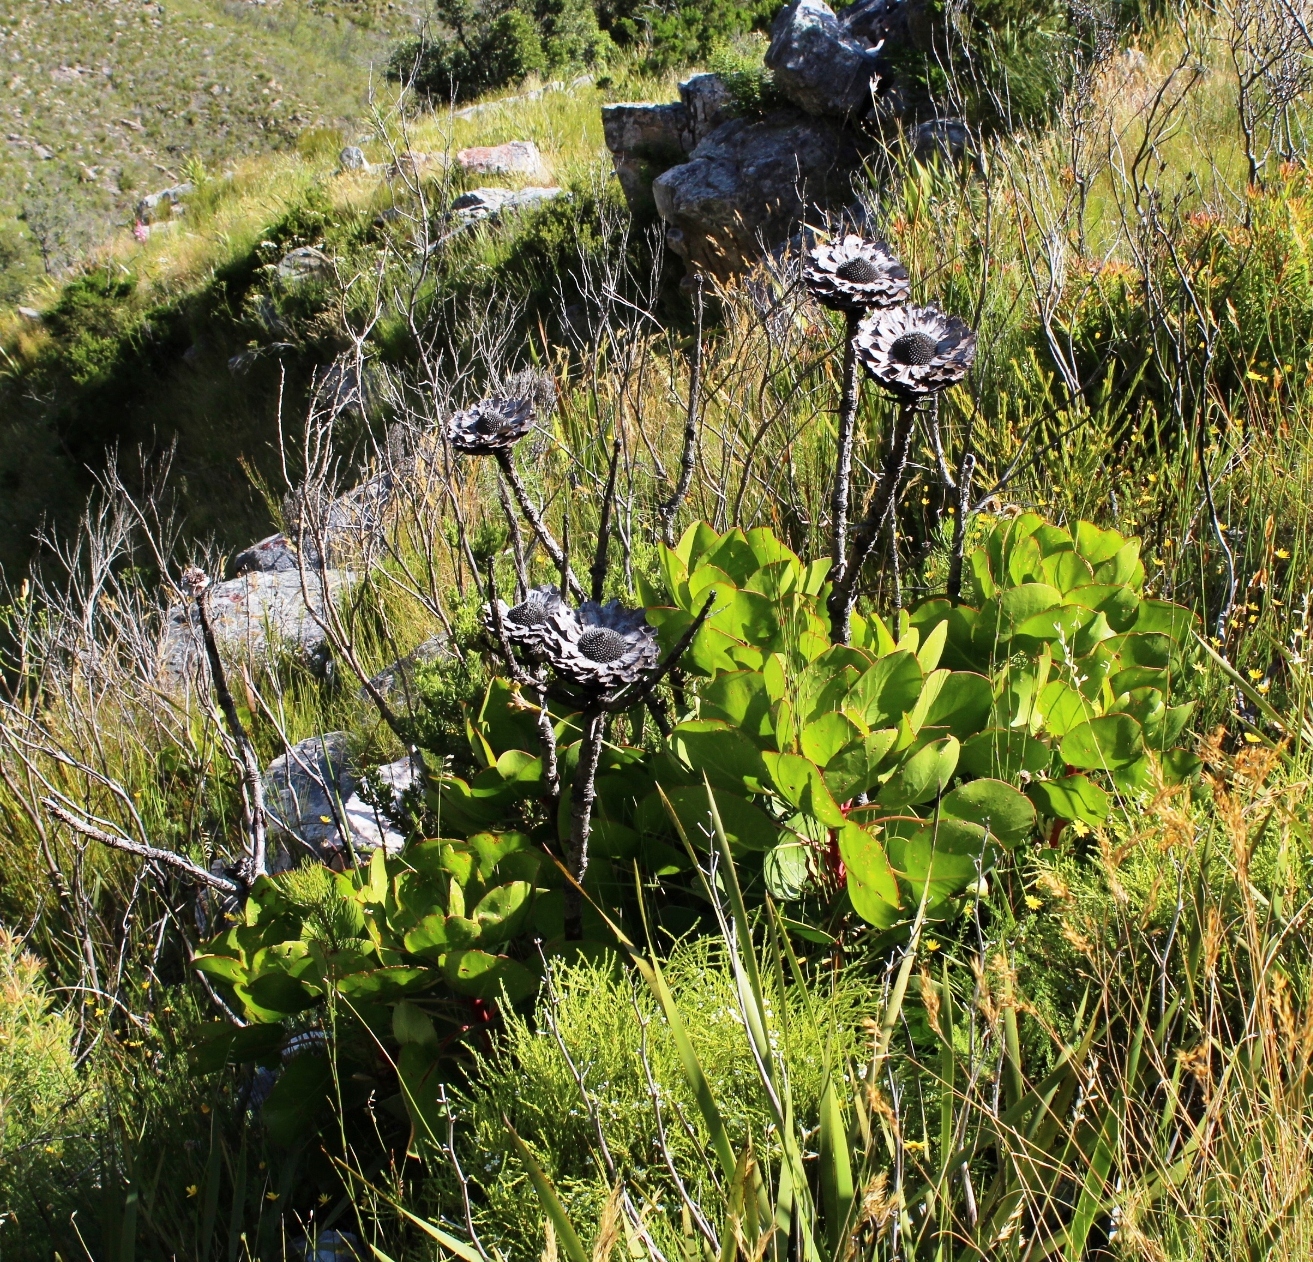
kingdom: Plantae
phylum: Tracheophyta
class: Magnoliopsida
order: Proteales
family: Proteaceae
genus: Protea
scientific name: Protea cynaroides
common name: King protea
